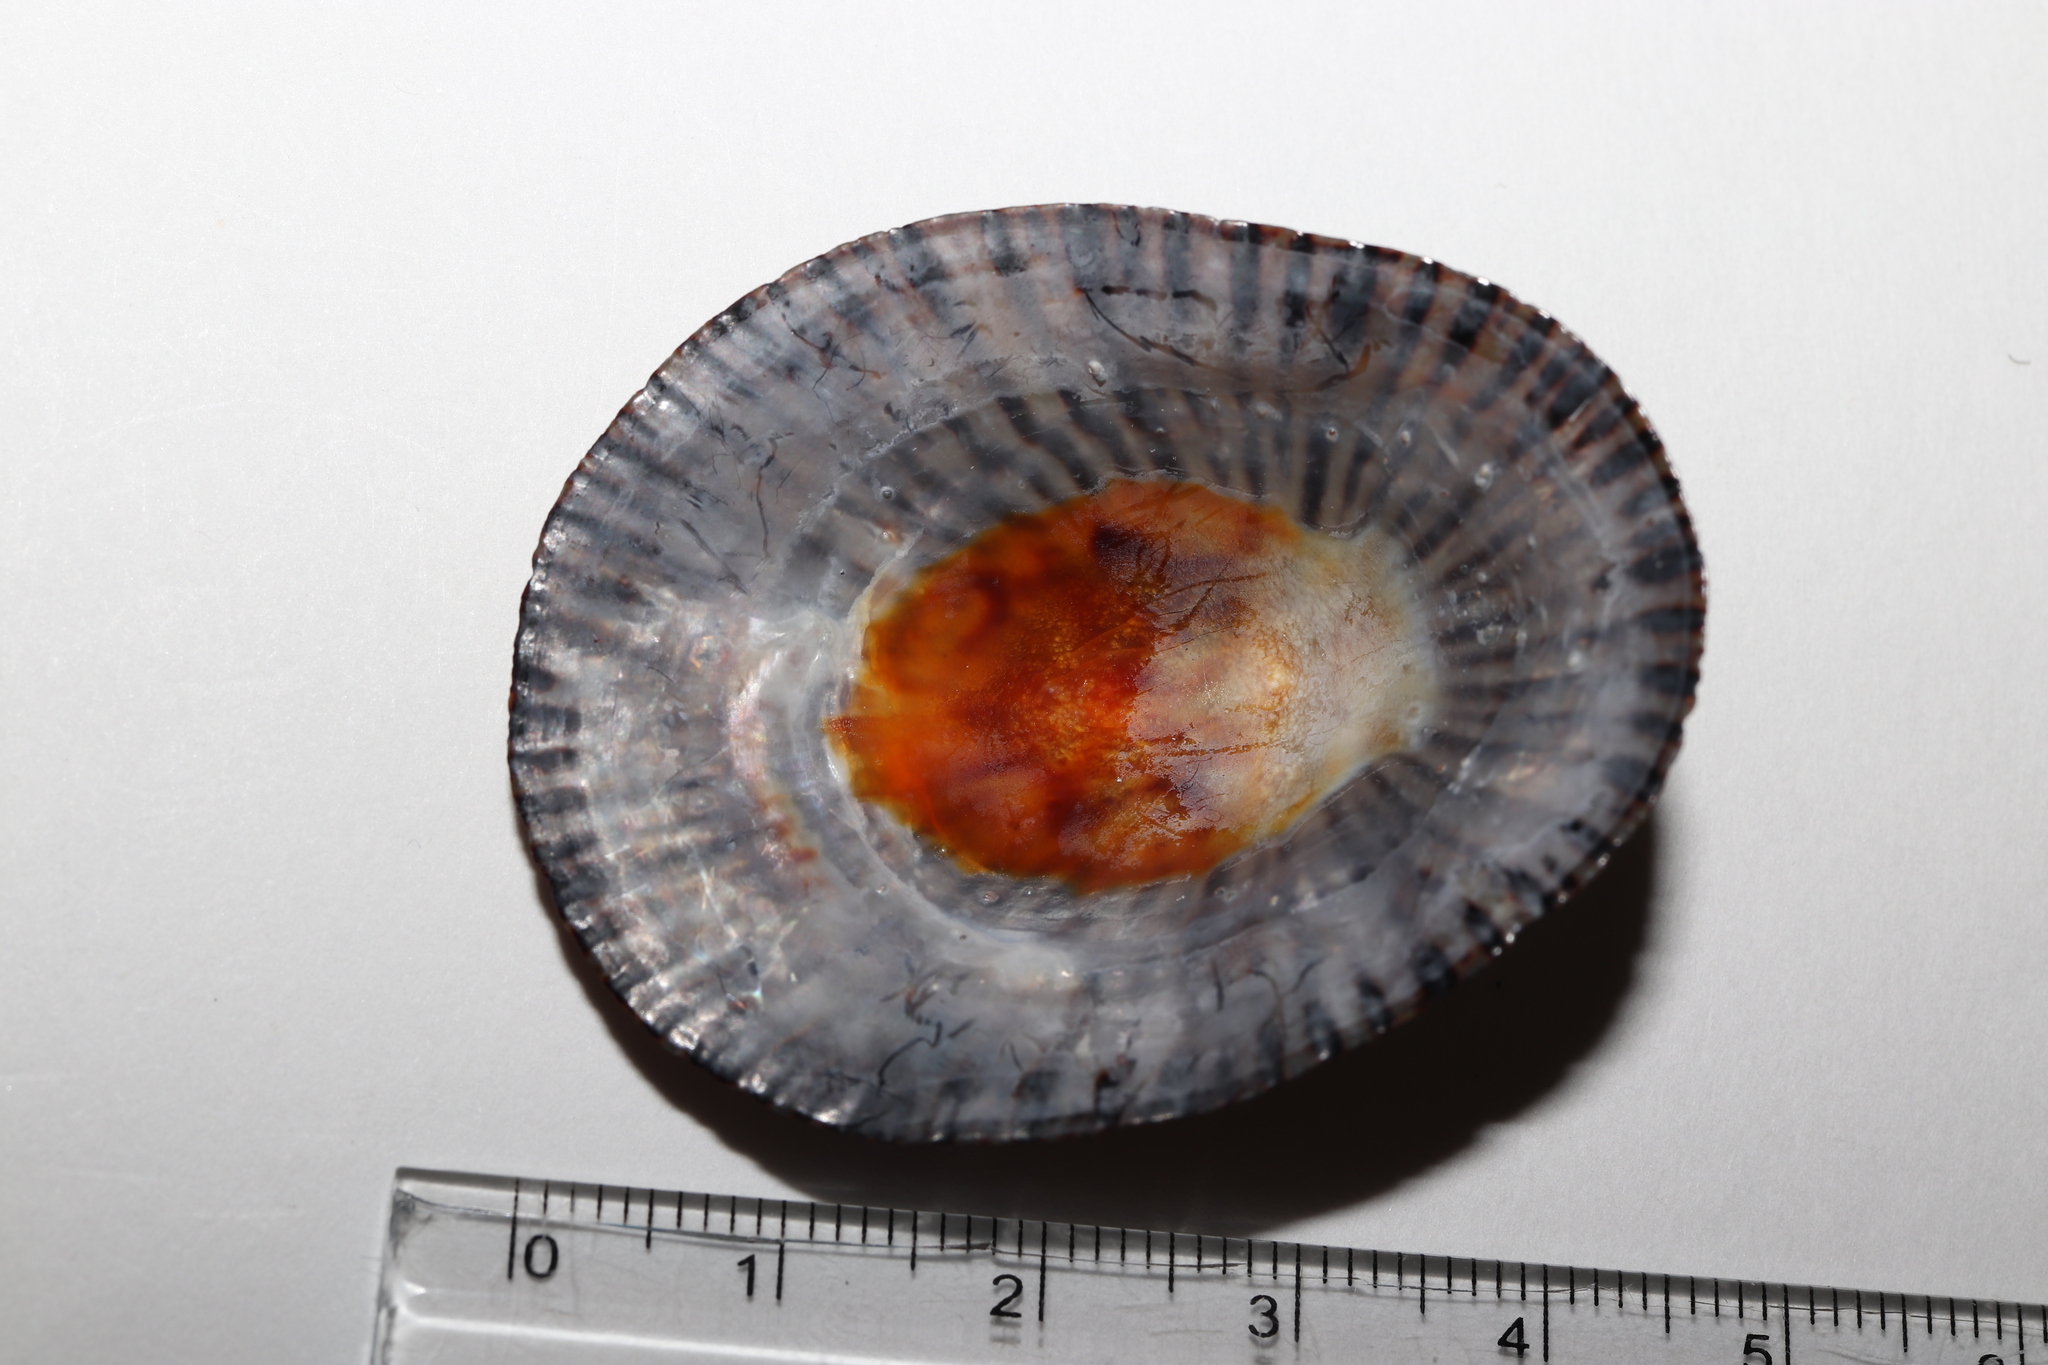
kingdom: Animalia
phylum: Mollusca
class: Gastropoda
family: Nacellidae
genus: Cellana
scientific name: Cellana nigrolineata
